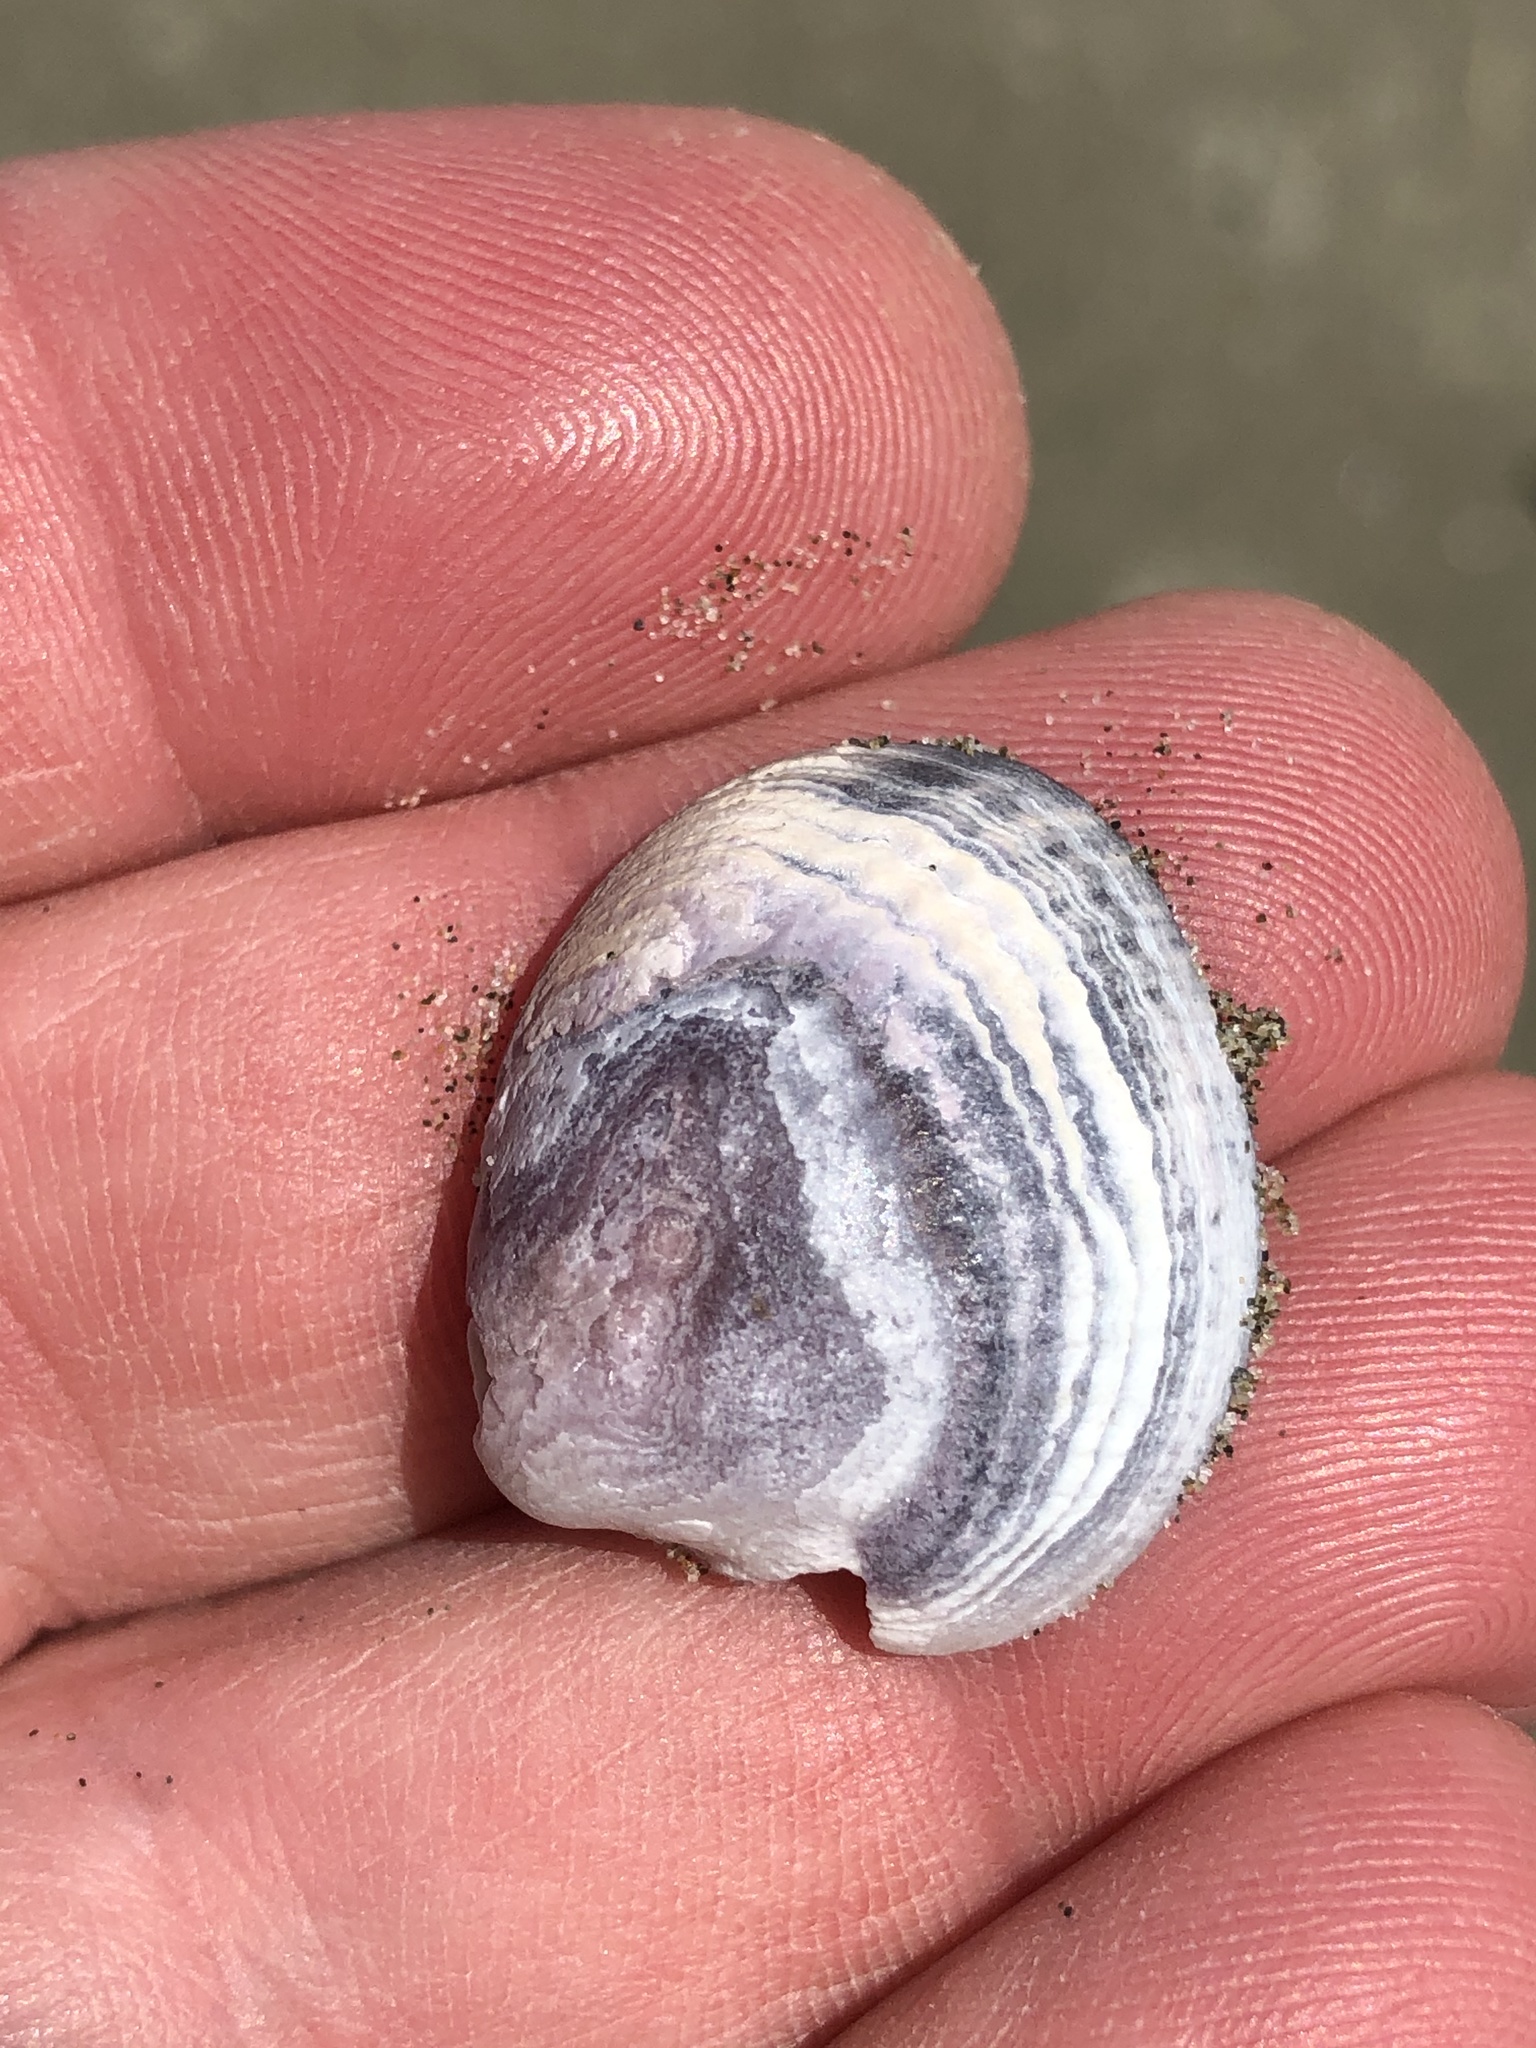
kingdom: Animalia
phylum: Mollusca
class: Bivalvia
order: Venerida
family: Veneridae
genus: Austrovenus
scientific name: Austrovenus stutchburyi
